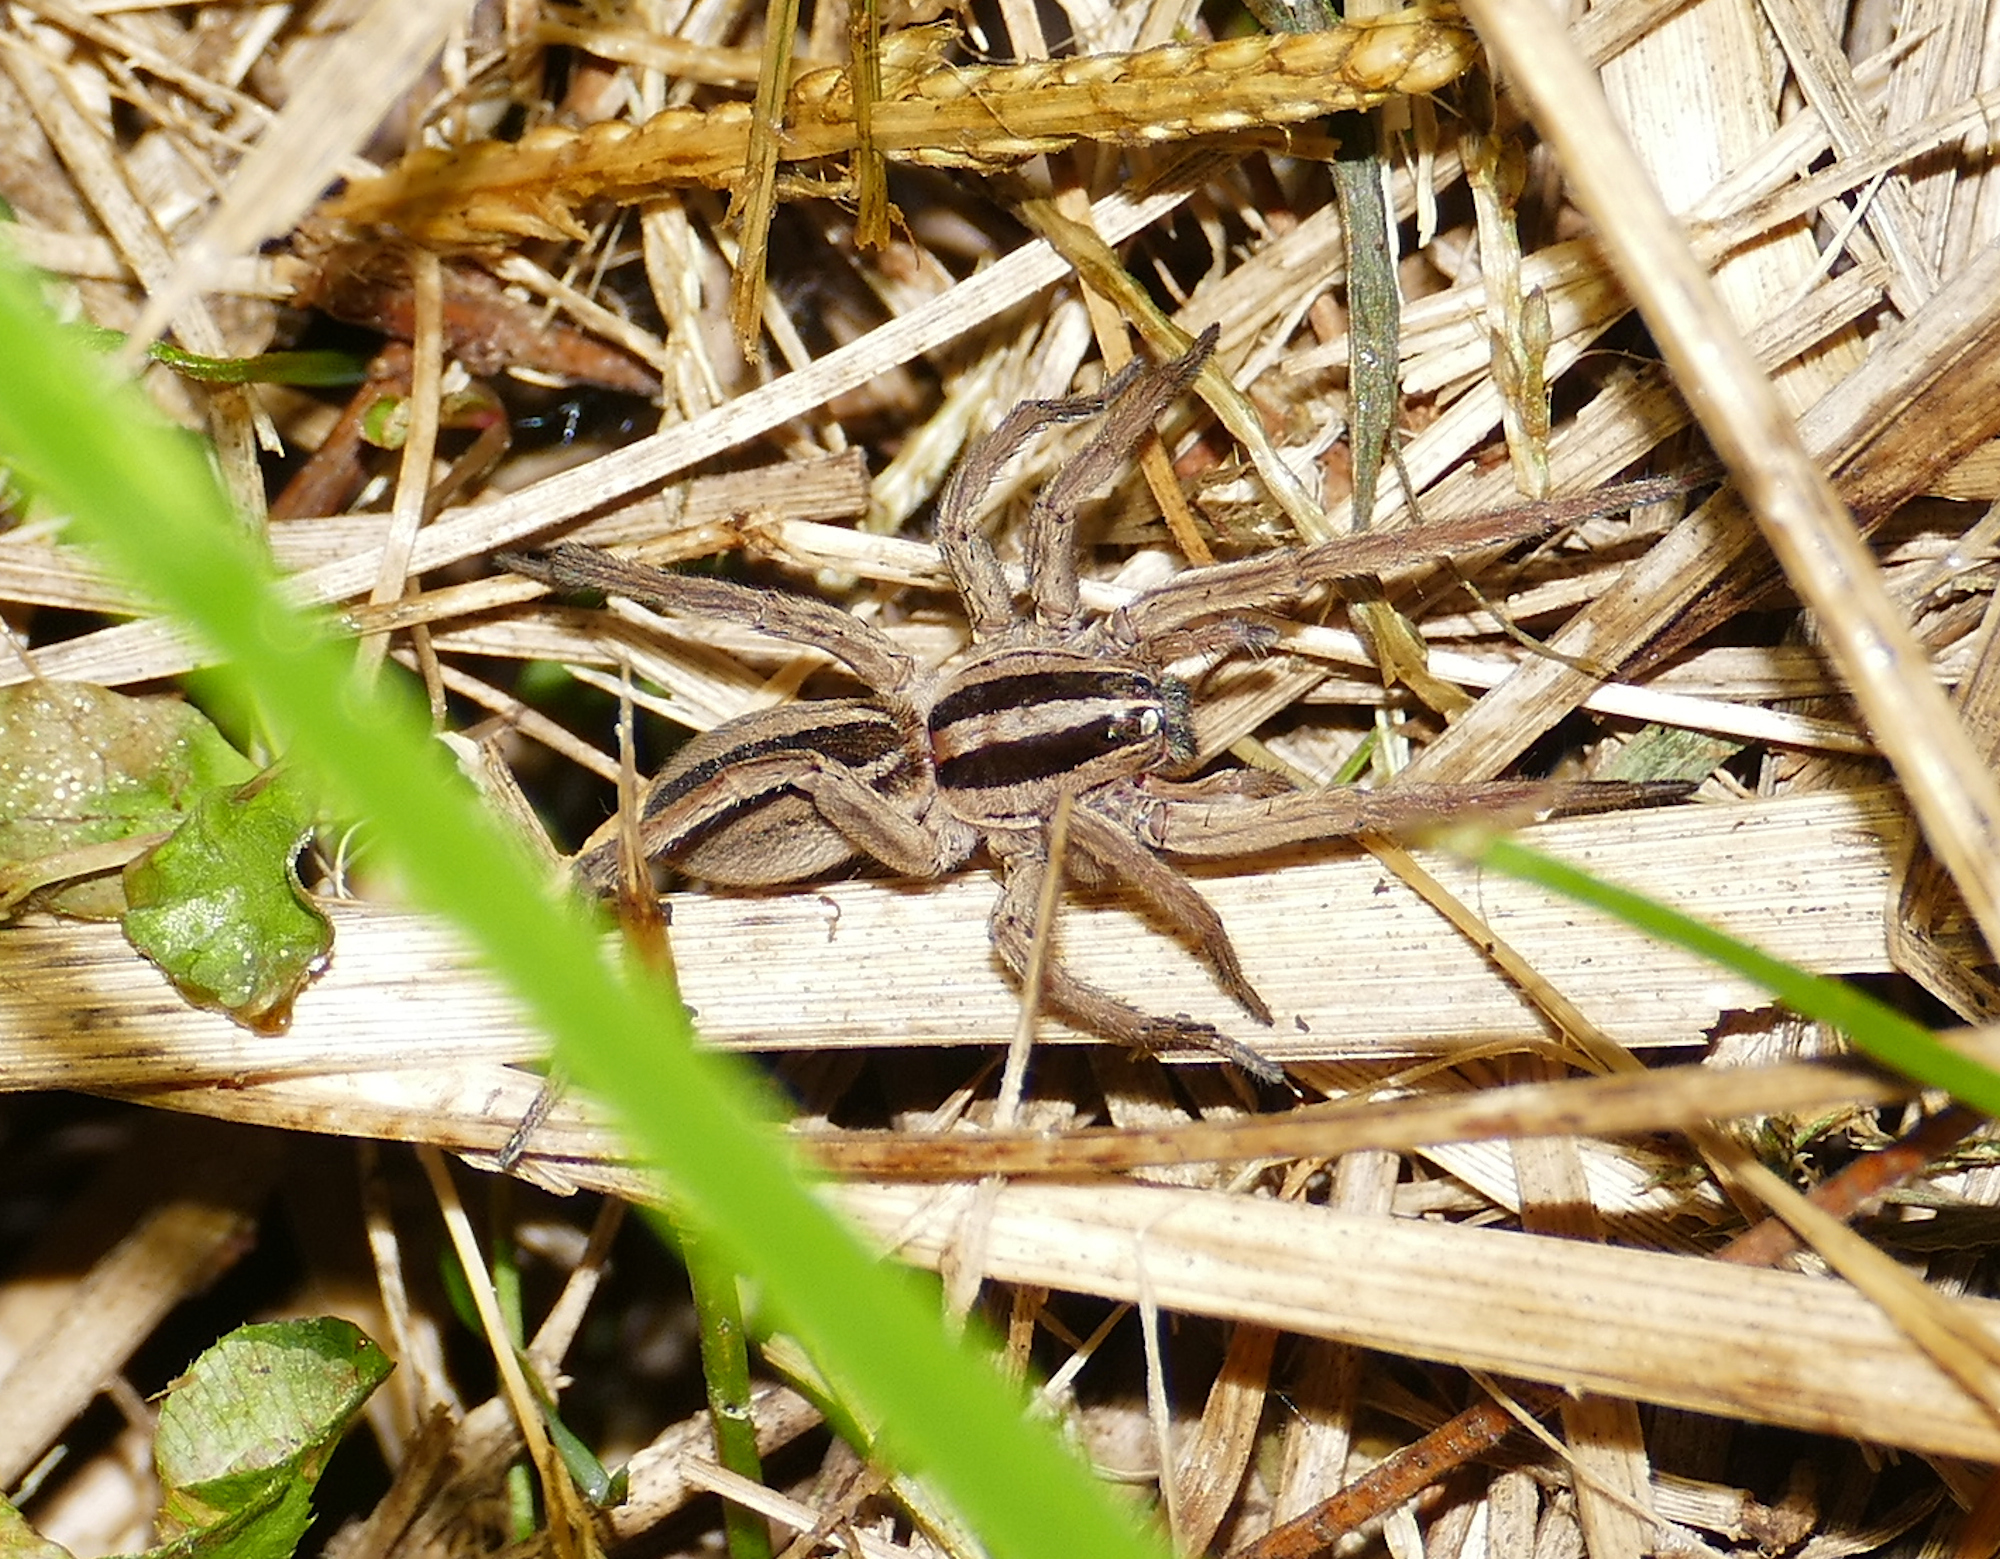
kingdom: Animalia
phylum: Arthropoda
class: Arachnida
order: Araneae
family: Lycosidae
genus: Rabidosa
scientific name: Rabidosa punctulata
